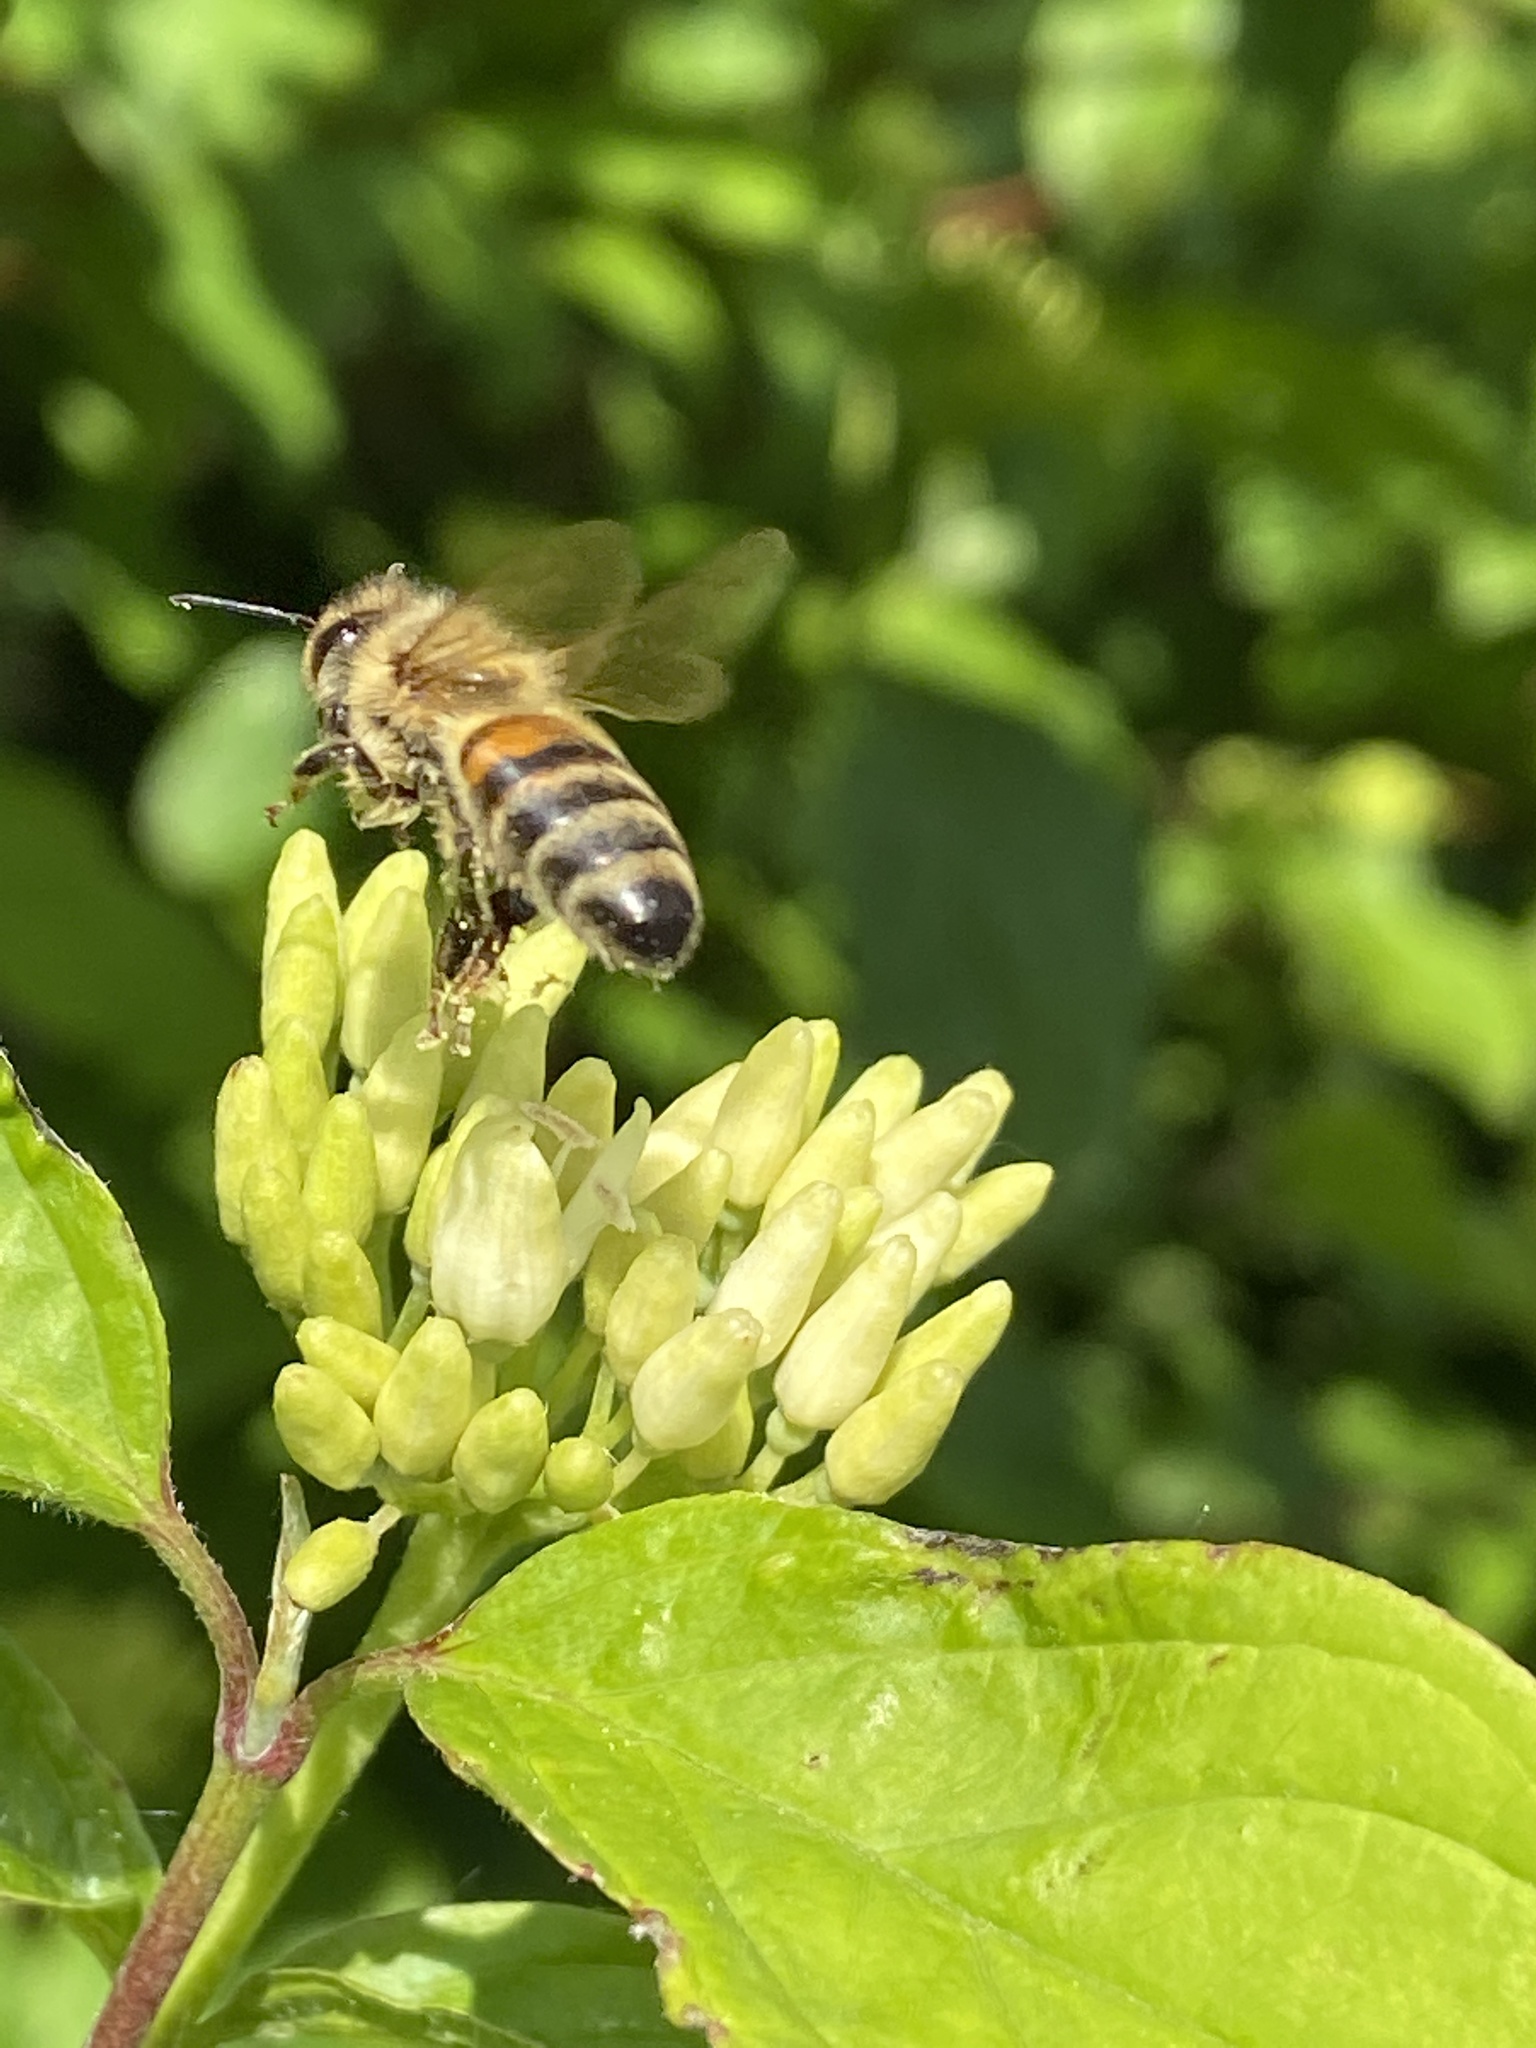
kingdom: Animalia
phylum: Arthropoda
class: Insecta
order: Hymenoptera
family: Apidae
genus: Apis
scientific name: Apis mellifera
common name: Honey bee
